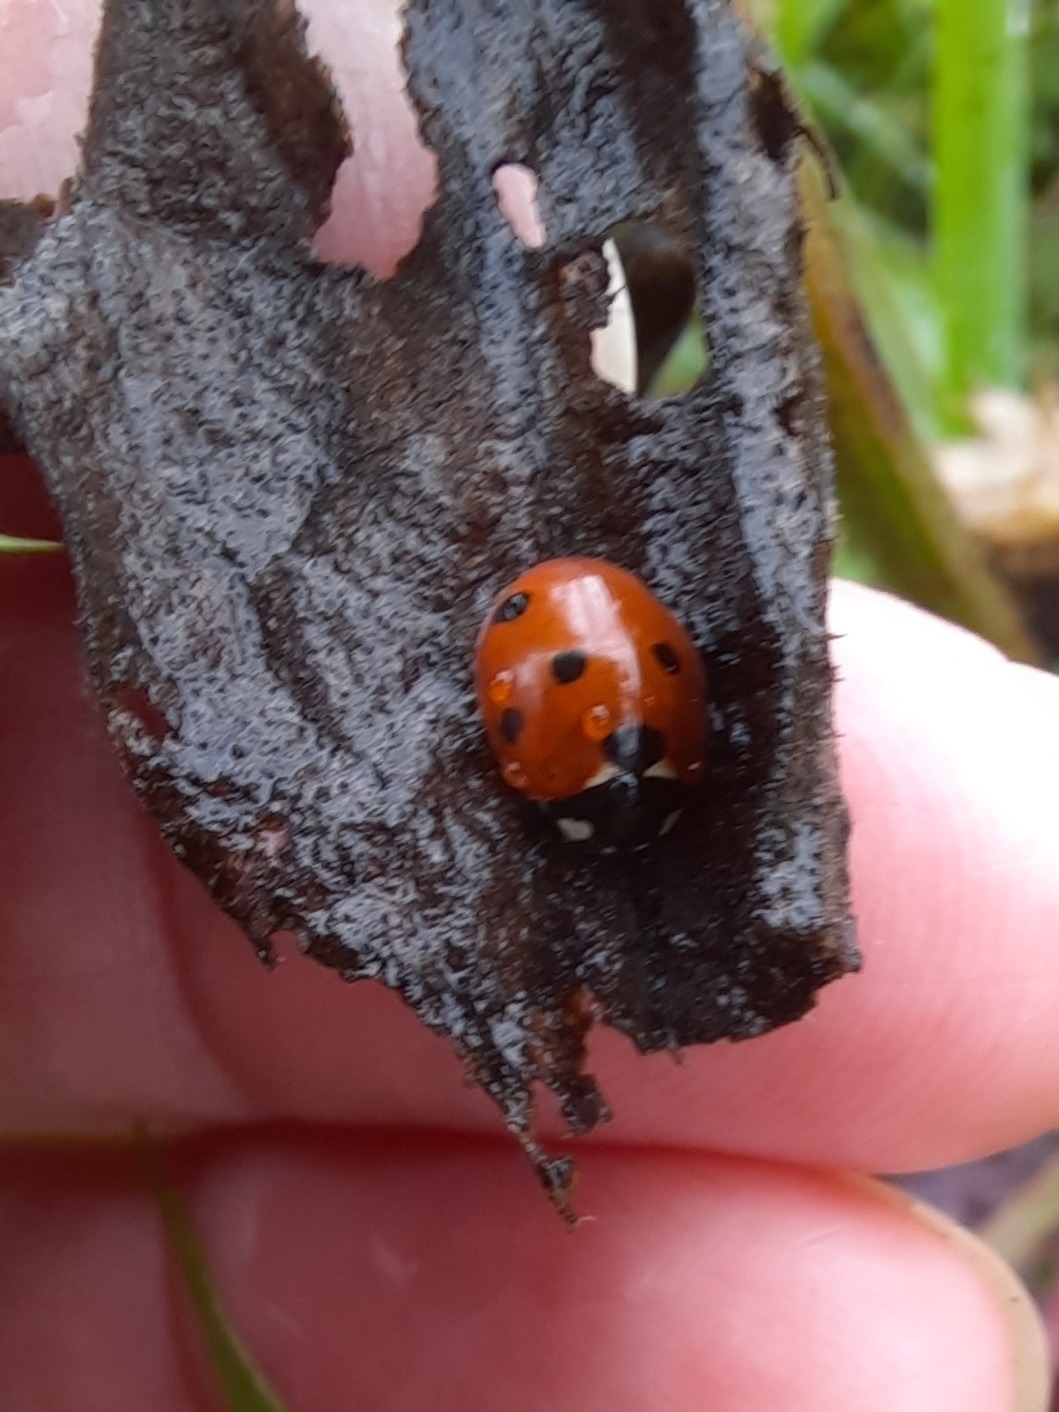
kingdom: Animalia
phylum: Arthropoda
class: Insecta
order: Coleoptera
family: Coccinellidae
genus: Coccinella
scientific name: Coccinella septempunctata
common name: Sevenspotted lady beetle
